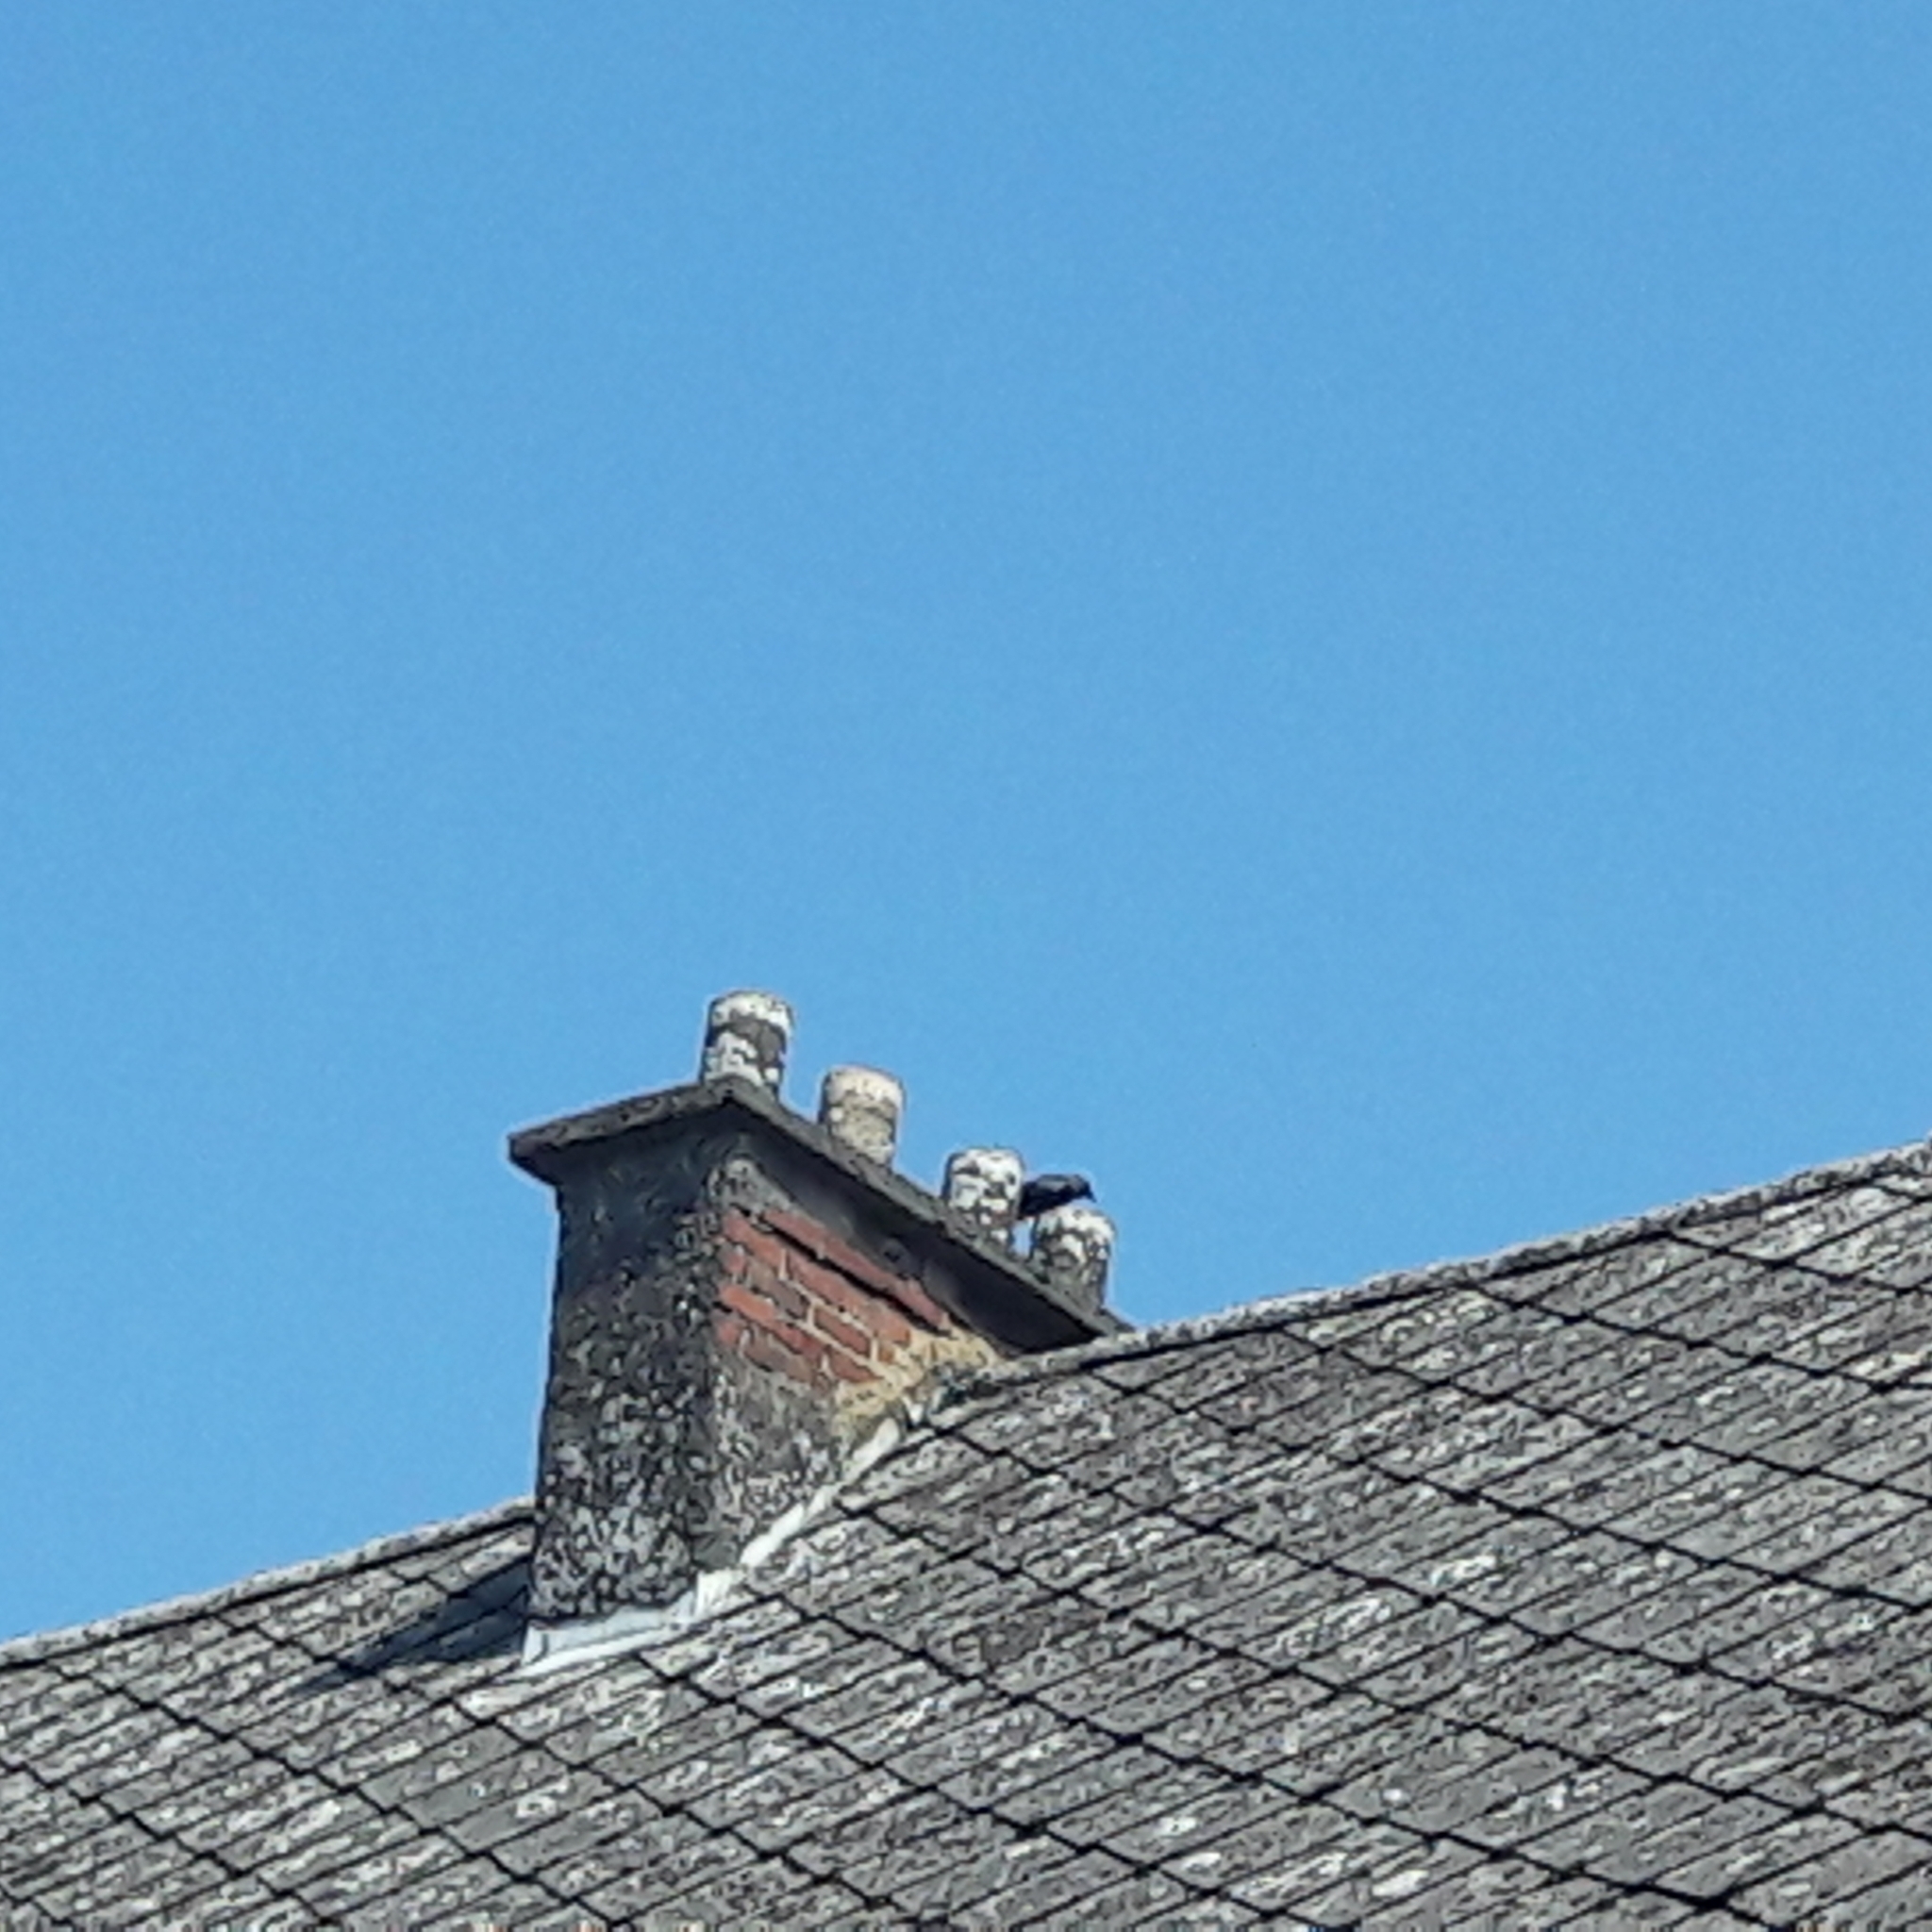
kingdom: Animalia
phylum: Chordata
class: Aves
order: Passeriformes
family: Corvidae
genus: Coloeus
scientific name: Coloeus monedula
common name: Western jackdaw
